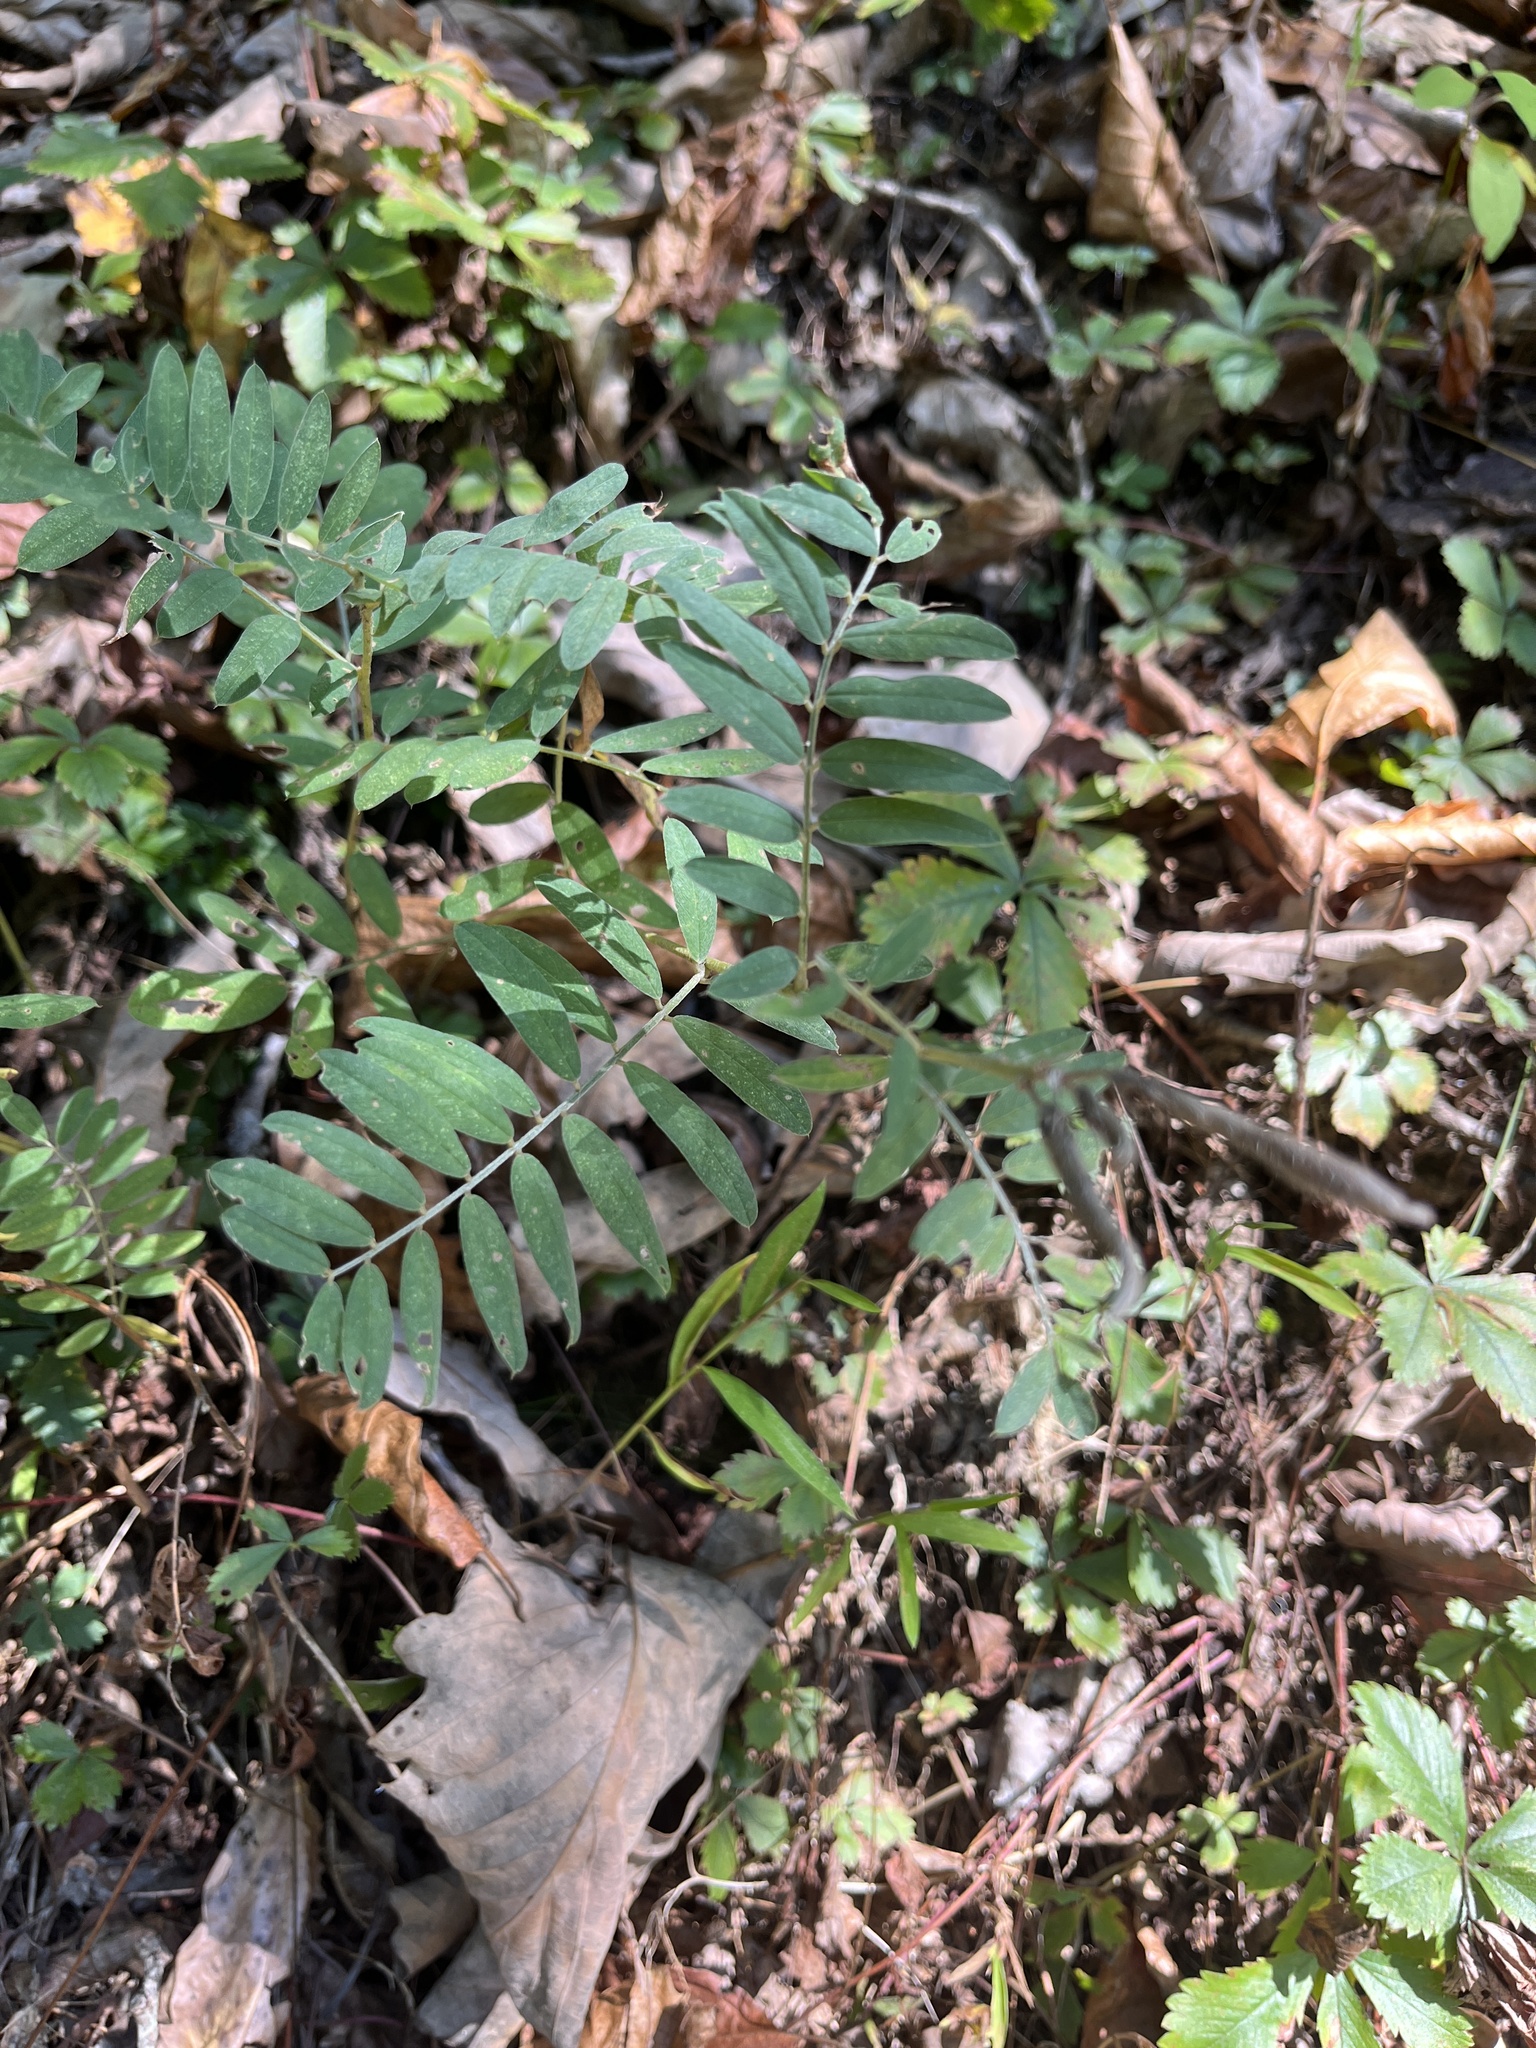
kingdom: Plantae
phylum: Tracheophyta
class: Magnoliopsida
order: Fabales
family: Fabaceae
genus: Tephrosia
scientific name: Tephrosia virginiana
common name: Rabbit-pea
